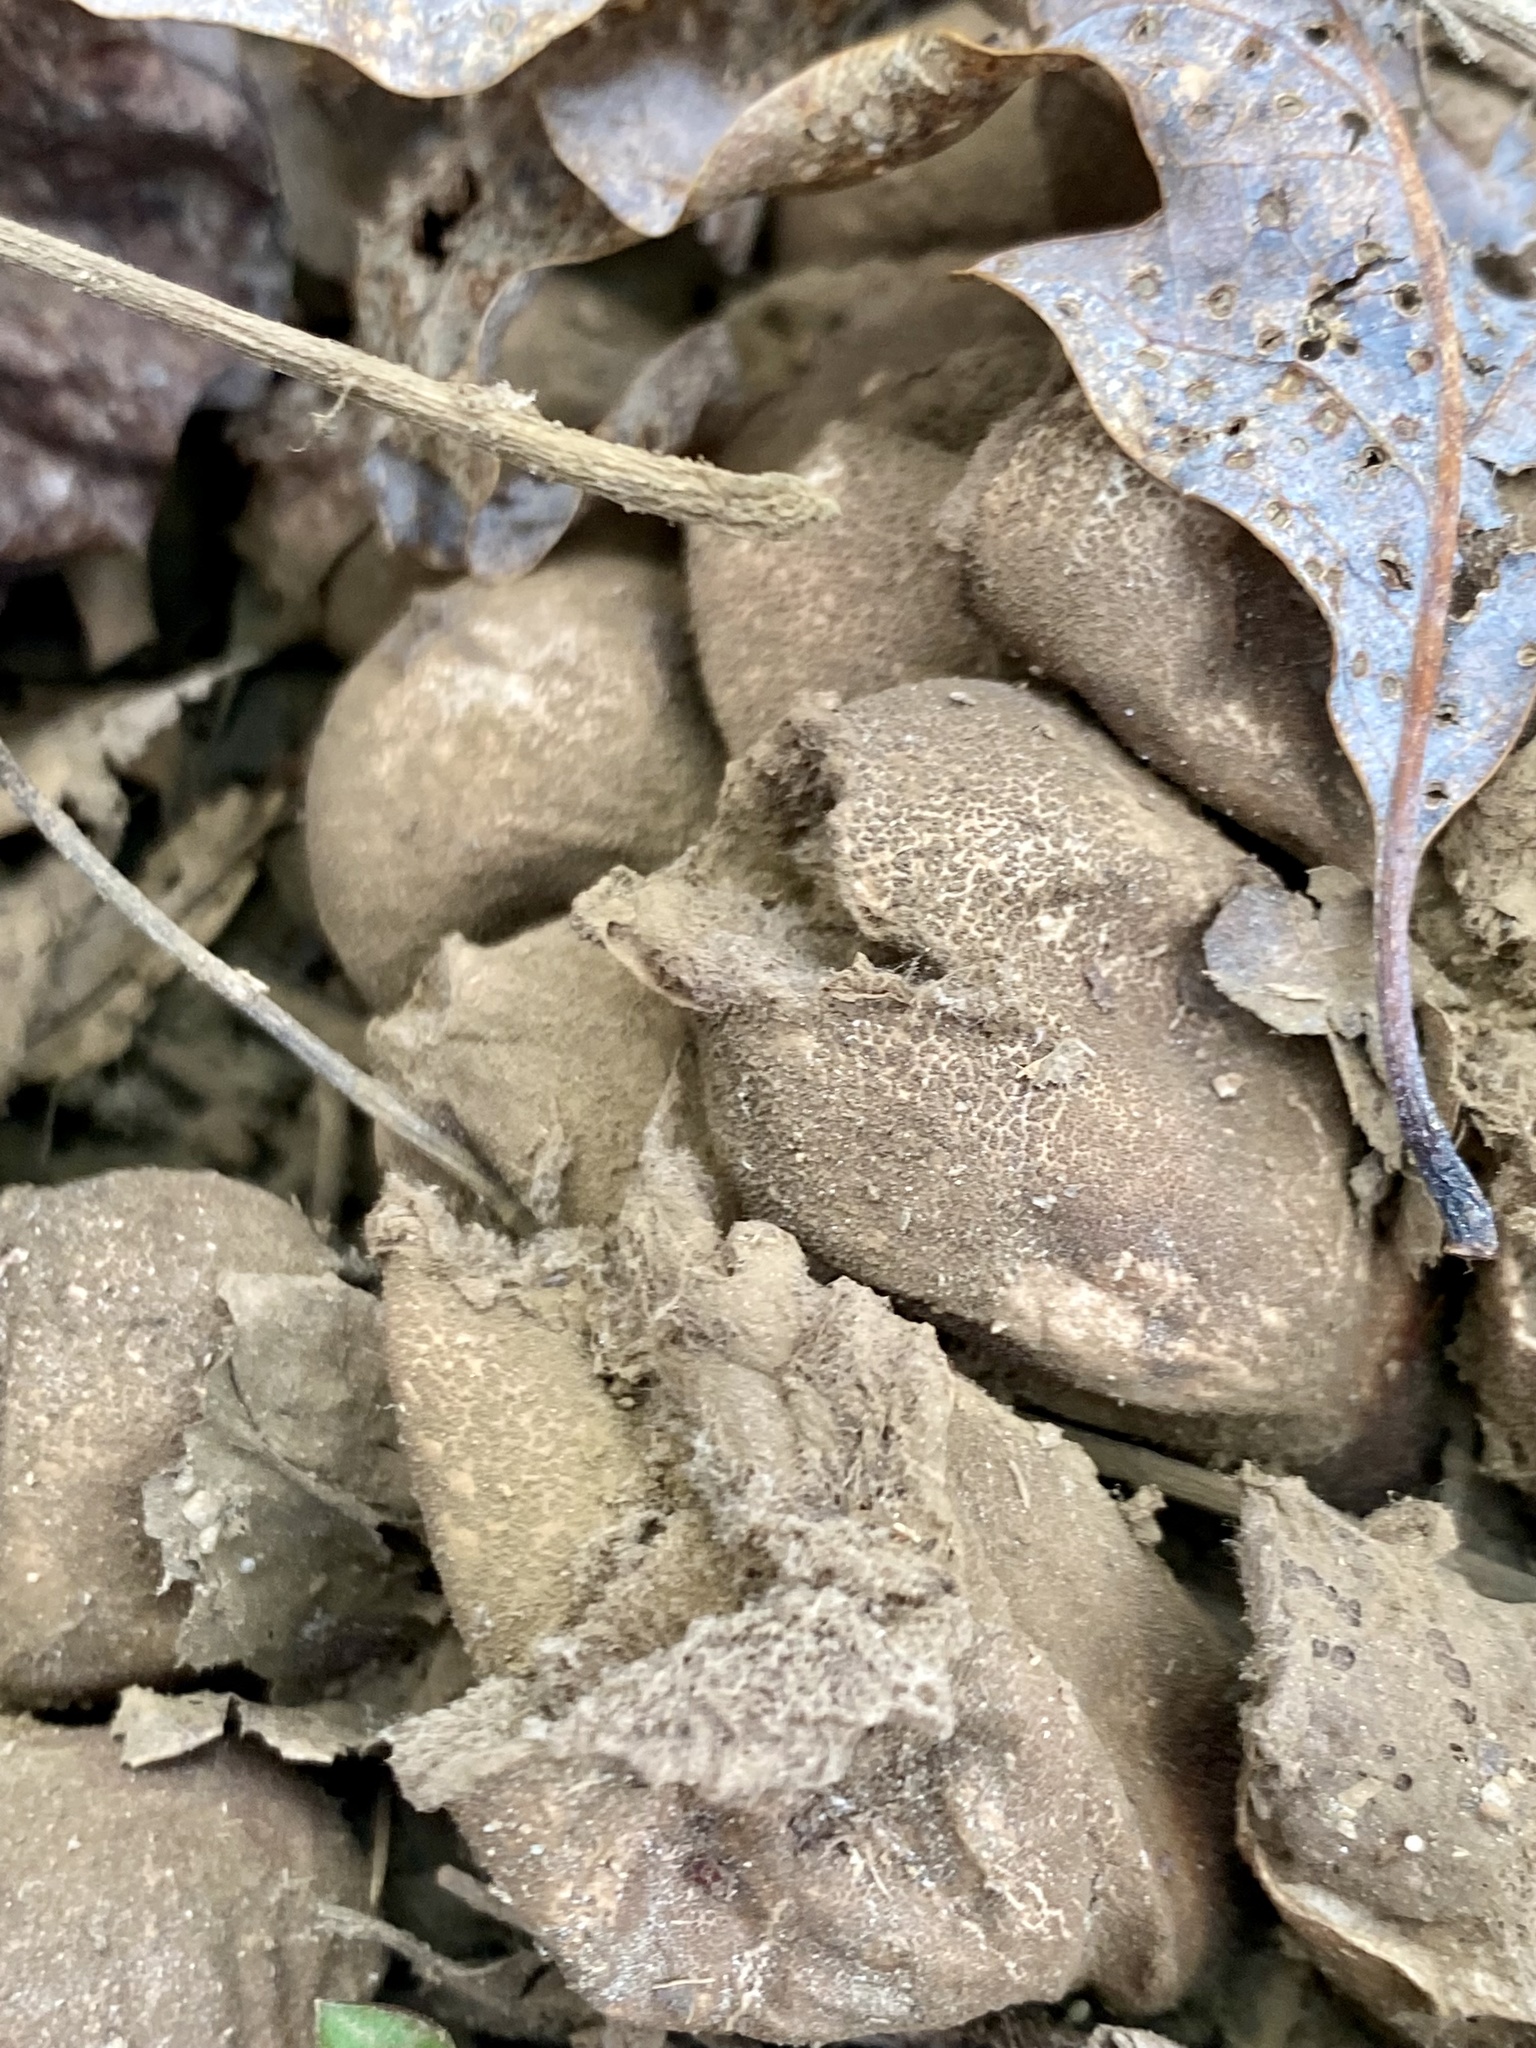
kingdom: Fungi
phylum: Basidiomycota
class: Agaricomycetes
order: Agaricales
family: Lycoperdaceae
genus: Apioperdon
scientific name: Apioperdon pyriforme
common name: Pear-shaped puffball
